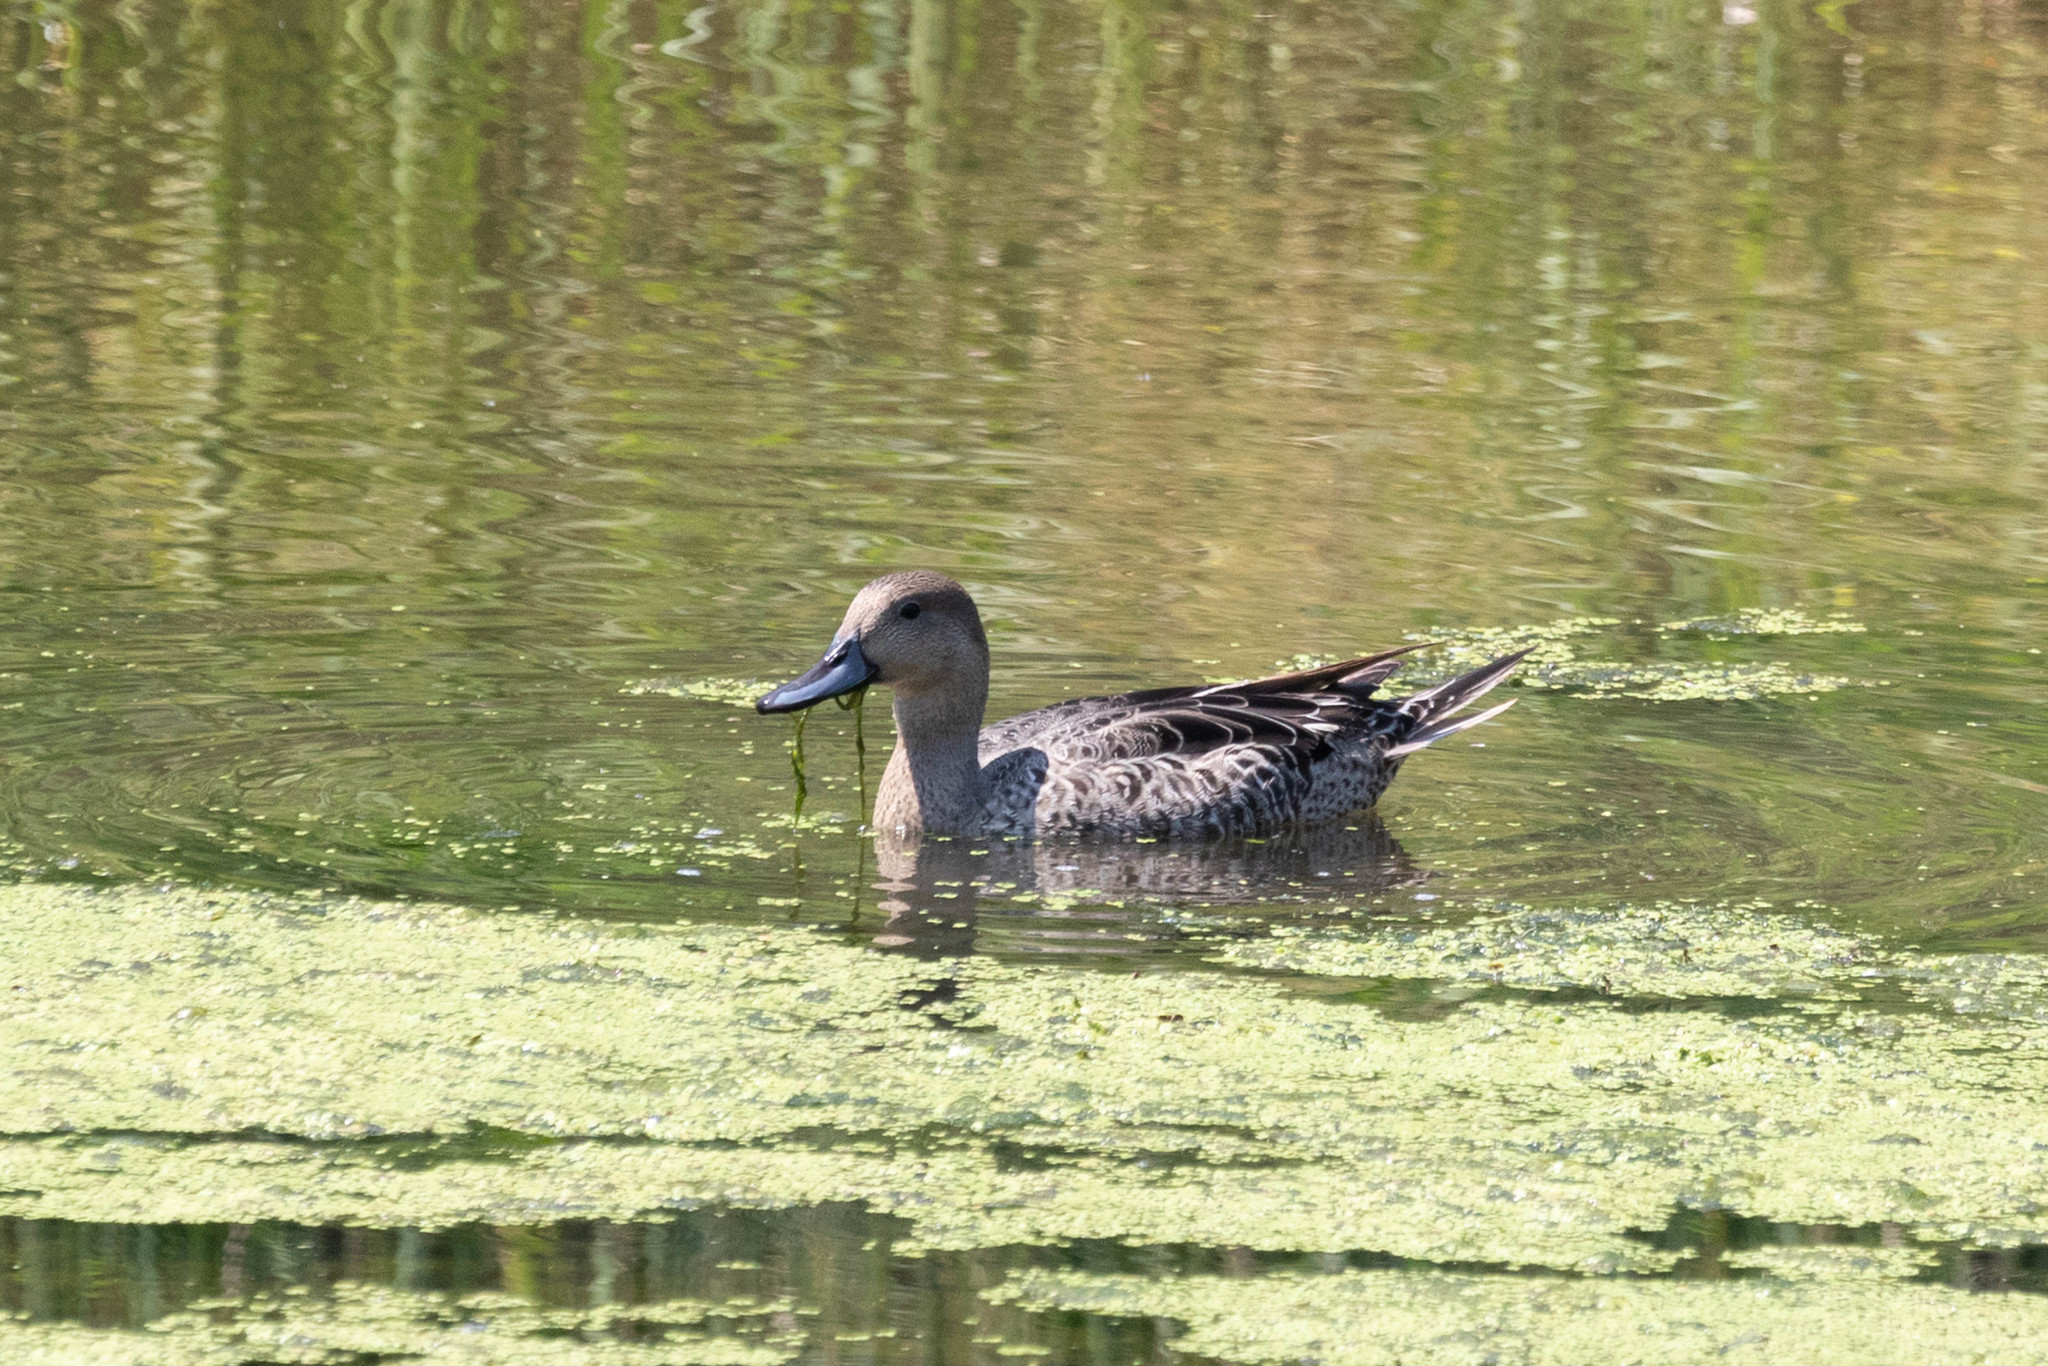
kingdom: Animalia
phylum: Chordata
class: Aves
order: Anseriformes
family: Anatidae
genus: Anas
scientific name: Anas acuta
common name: Northern pintail
